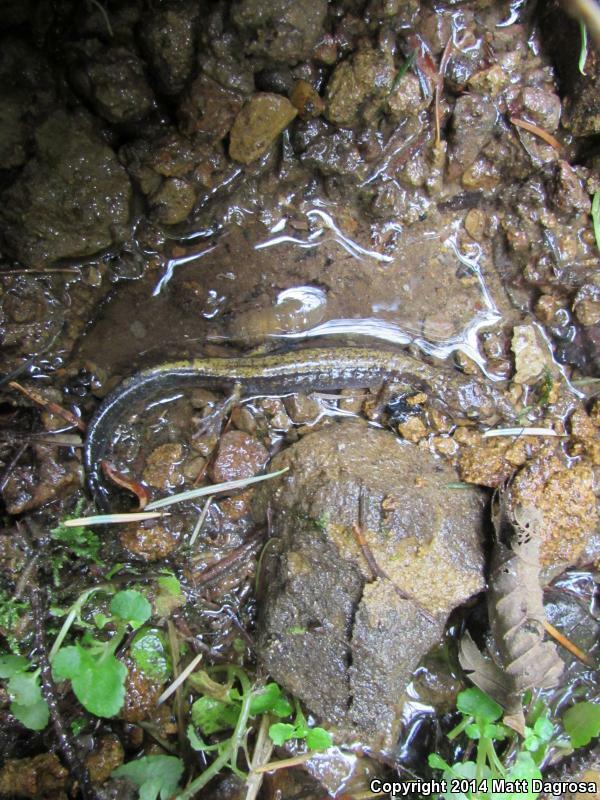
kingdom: Animalia
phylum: Chordata
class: Amphibia
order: Caudata
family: Plethodontidae
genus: Plethodon
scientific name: Plethodon dunni
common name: Dunn's salamander
